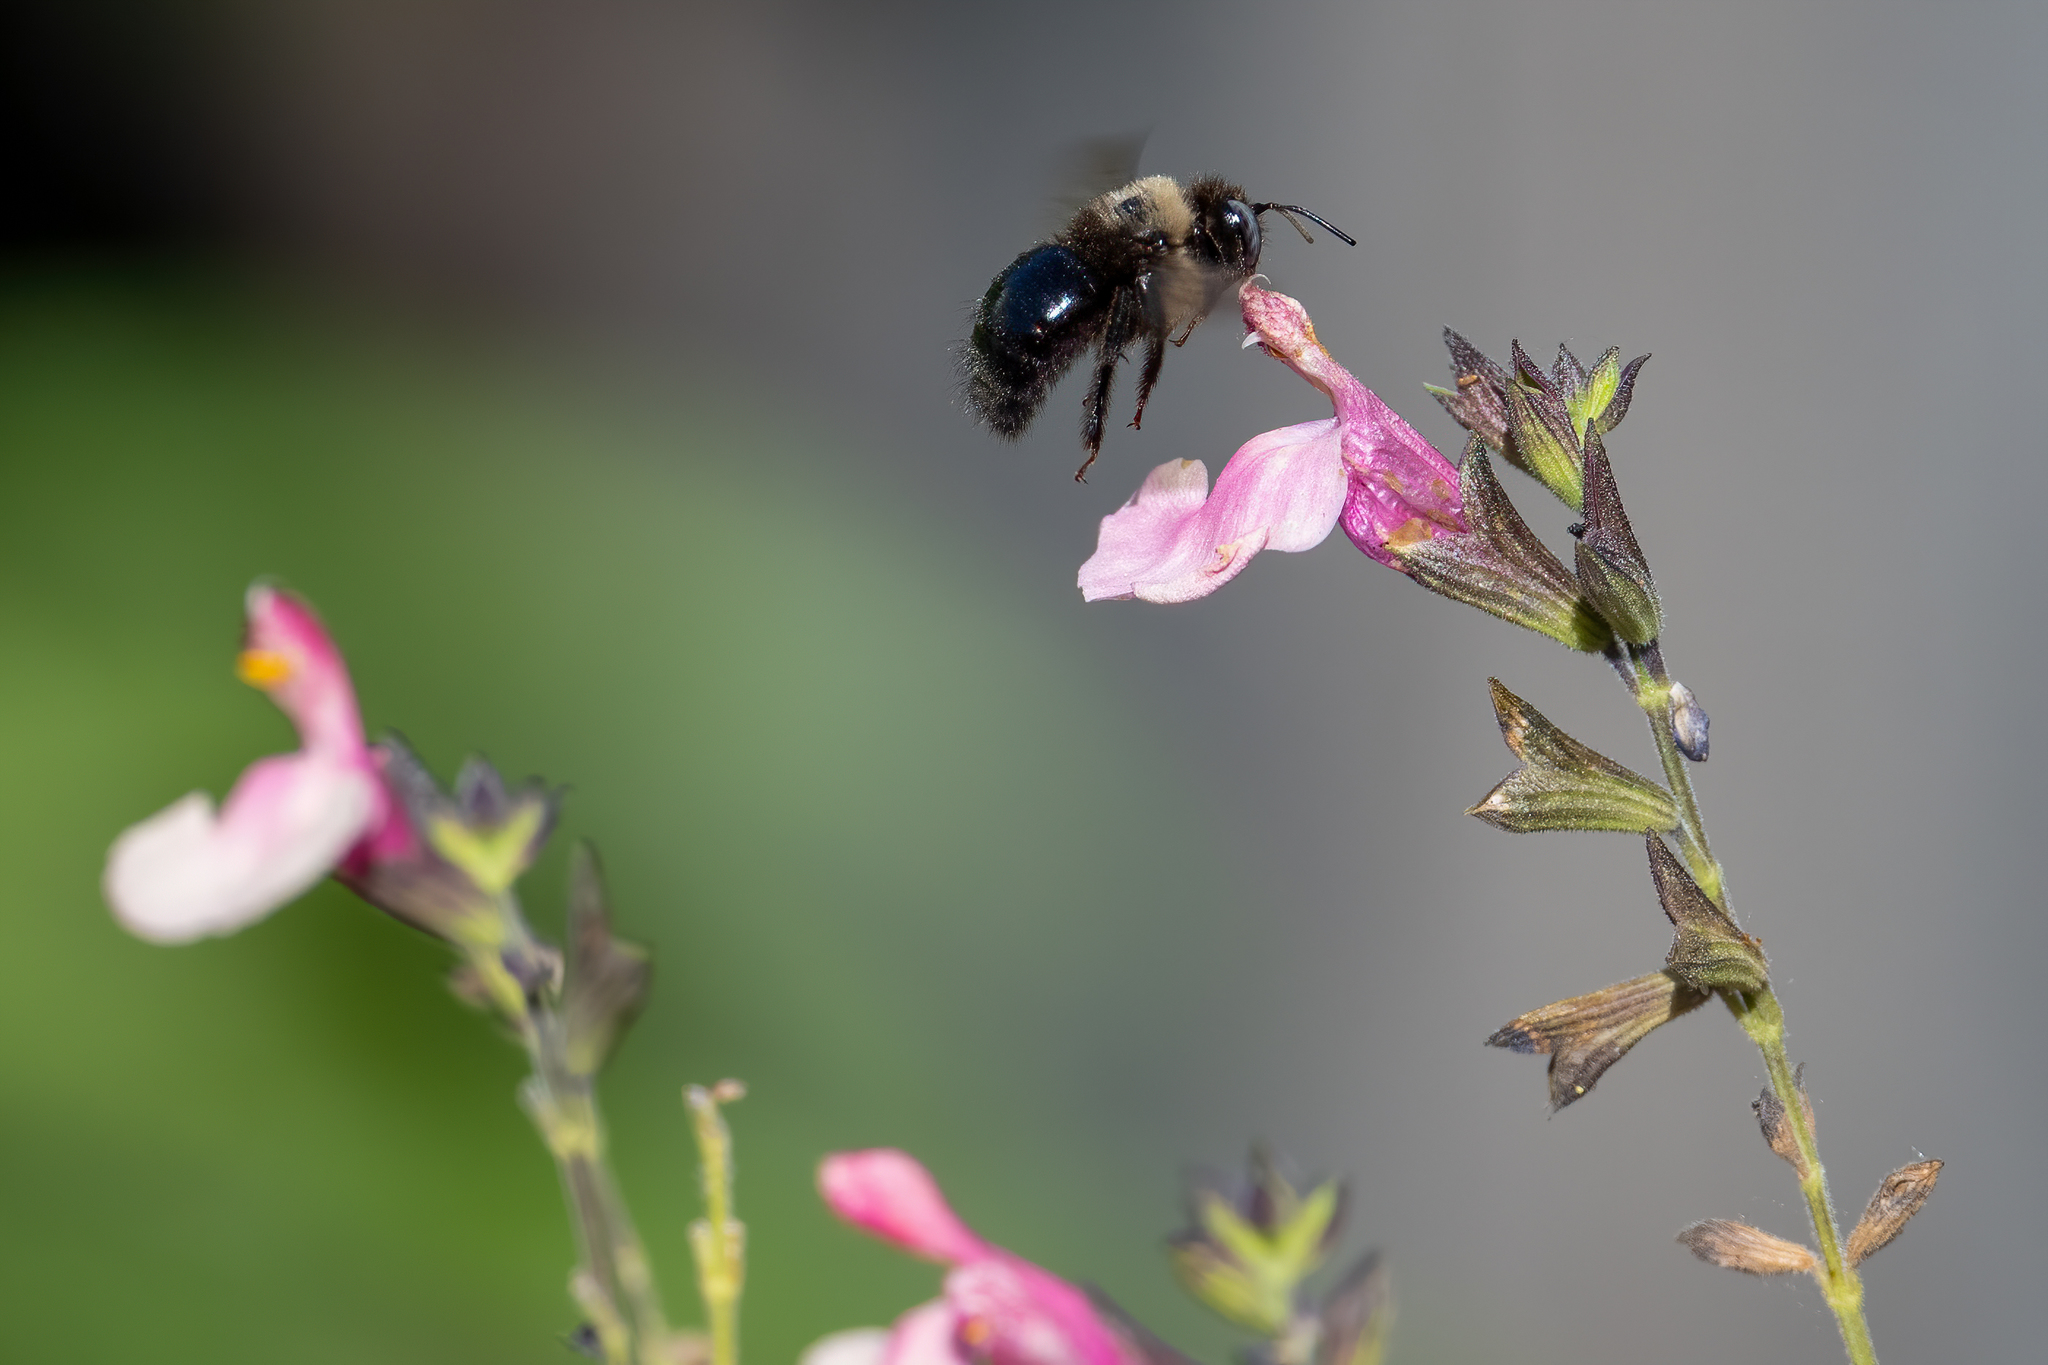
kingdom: Animalia
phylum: Arthropoda
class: Insecta
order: Hymenoptera
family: Apidae
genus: Xylocopa
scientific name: Xylocopa tabaniformis
